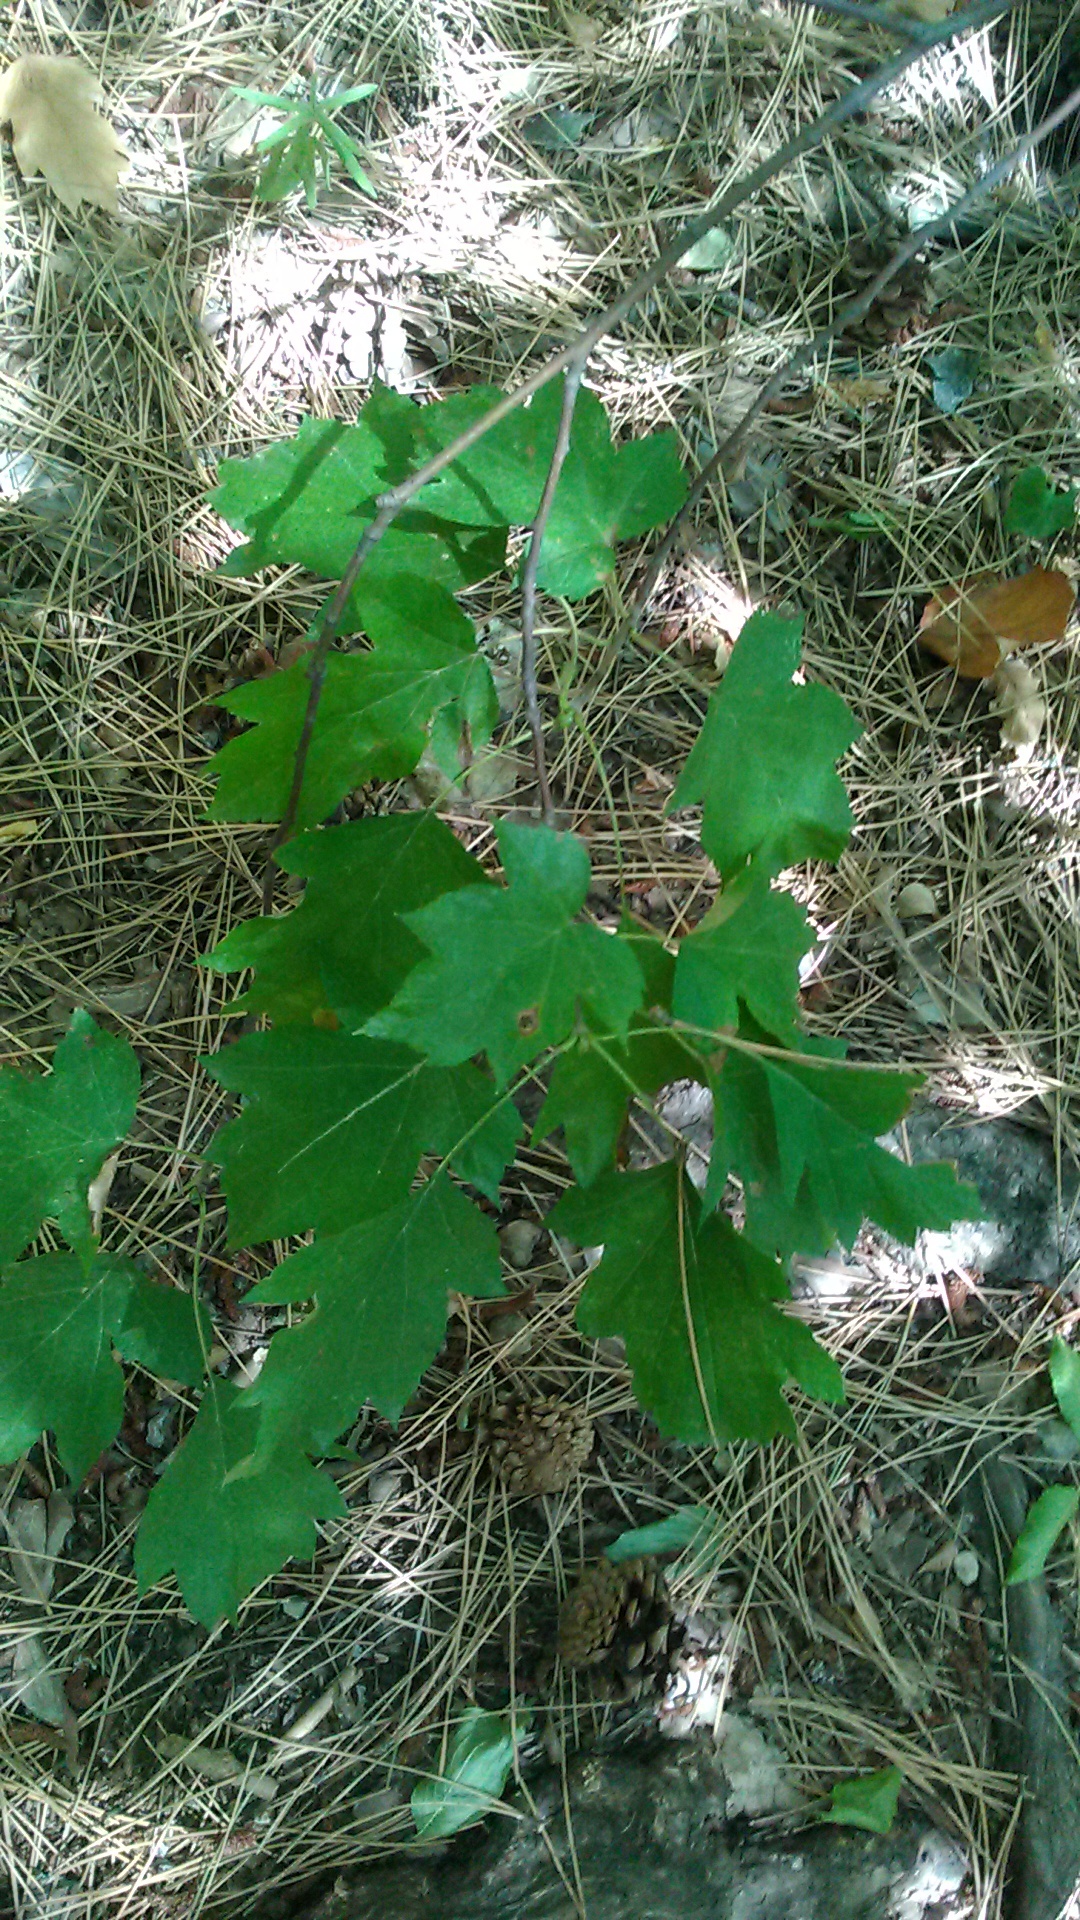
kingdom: Plantae
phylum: Tracheophyta
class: Magnoliopsida
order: Rosales
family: Rosaceae
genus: Torminalis
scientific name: Torminalis glaberrima
